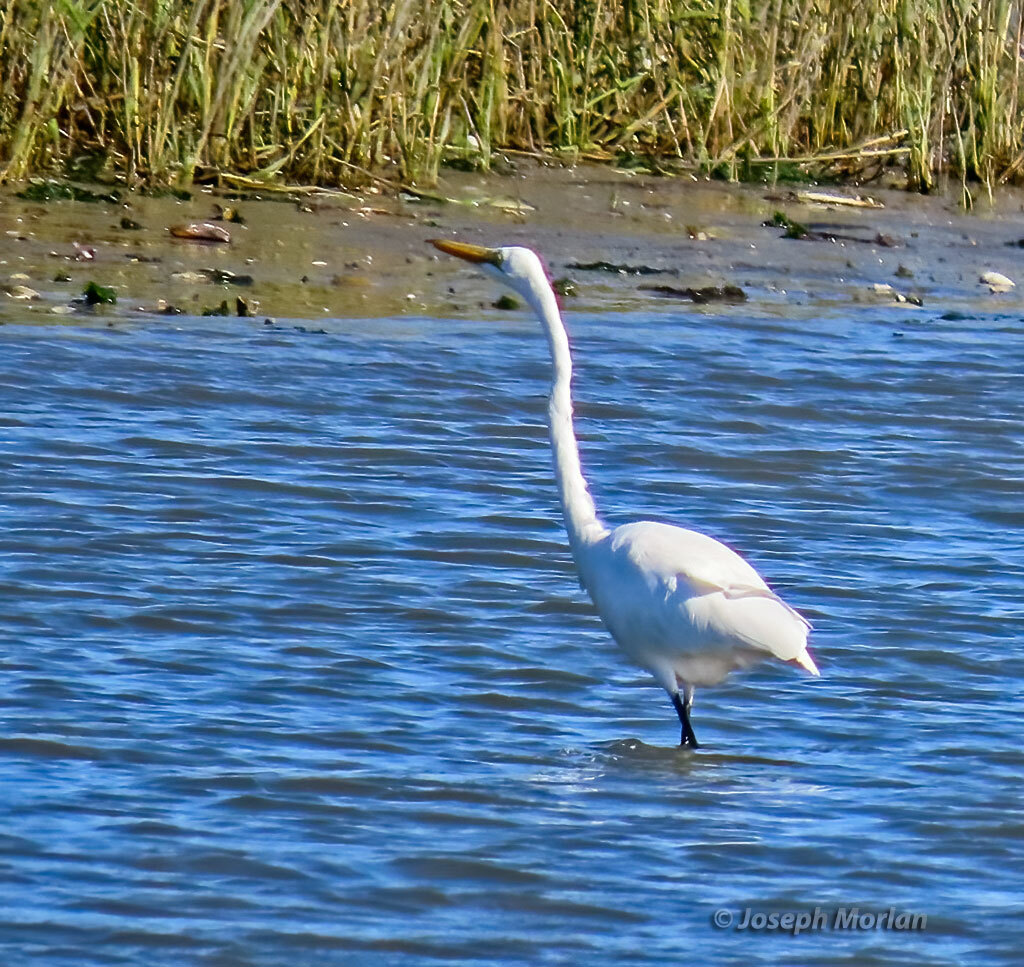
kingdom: Animalia
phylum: Chordata
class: Aves
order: Pelecaniformes
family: Ardeidae
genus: Ardea
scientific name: Ardea alba
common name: Great egret
